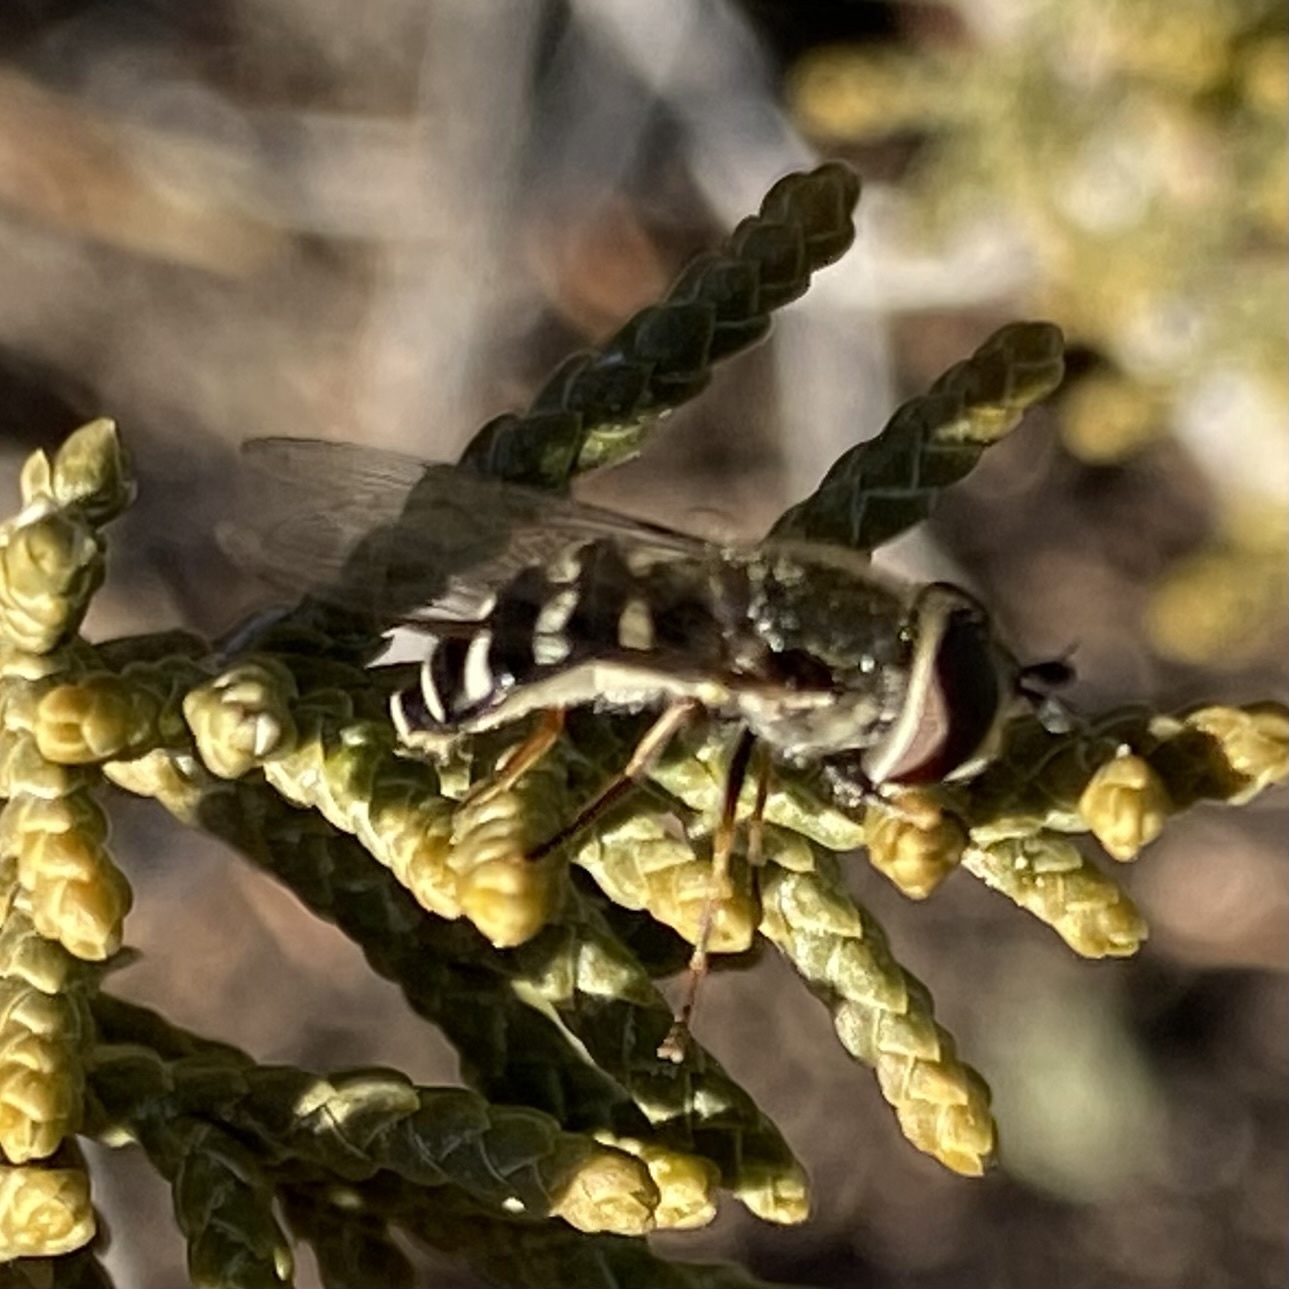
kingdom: Animalia
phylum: Arthropoda
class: Insecta
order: Diptera
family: Syrphidae
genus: Eupeodes
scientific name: Eupeodes volucris
